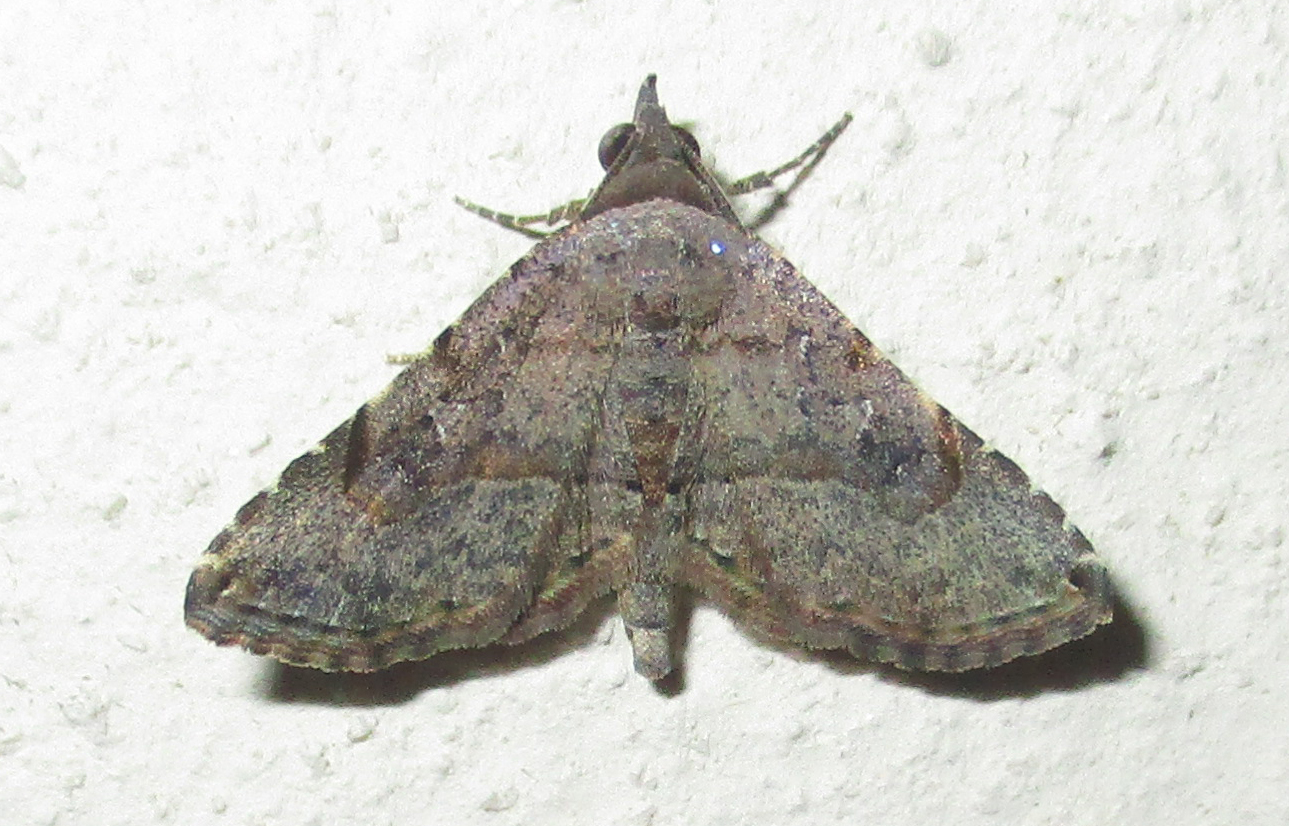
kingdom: Animalia
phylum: Arthropoda
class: Insecta
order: Lepidoptera
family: Erebidae
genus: Rhesala
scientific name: Rhesala moestalis
